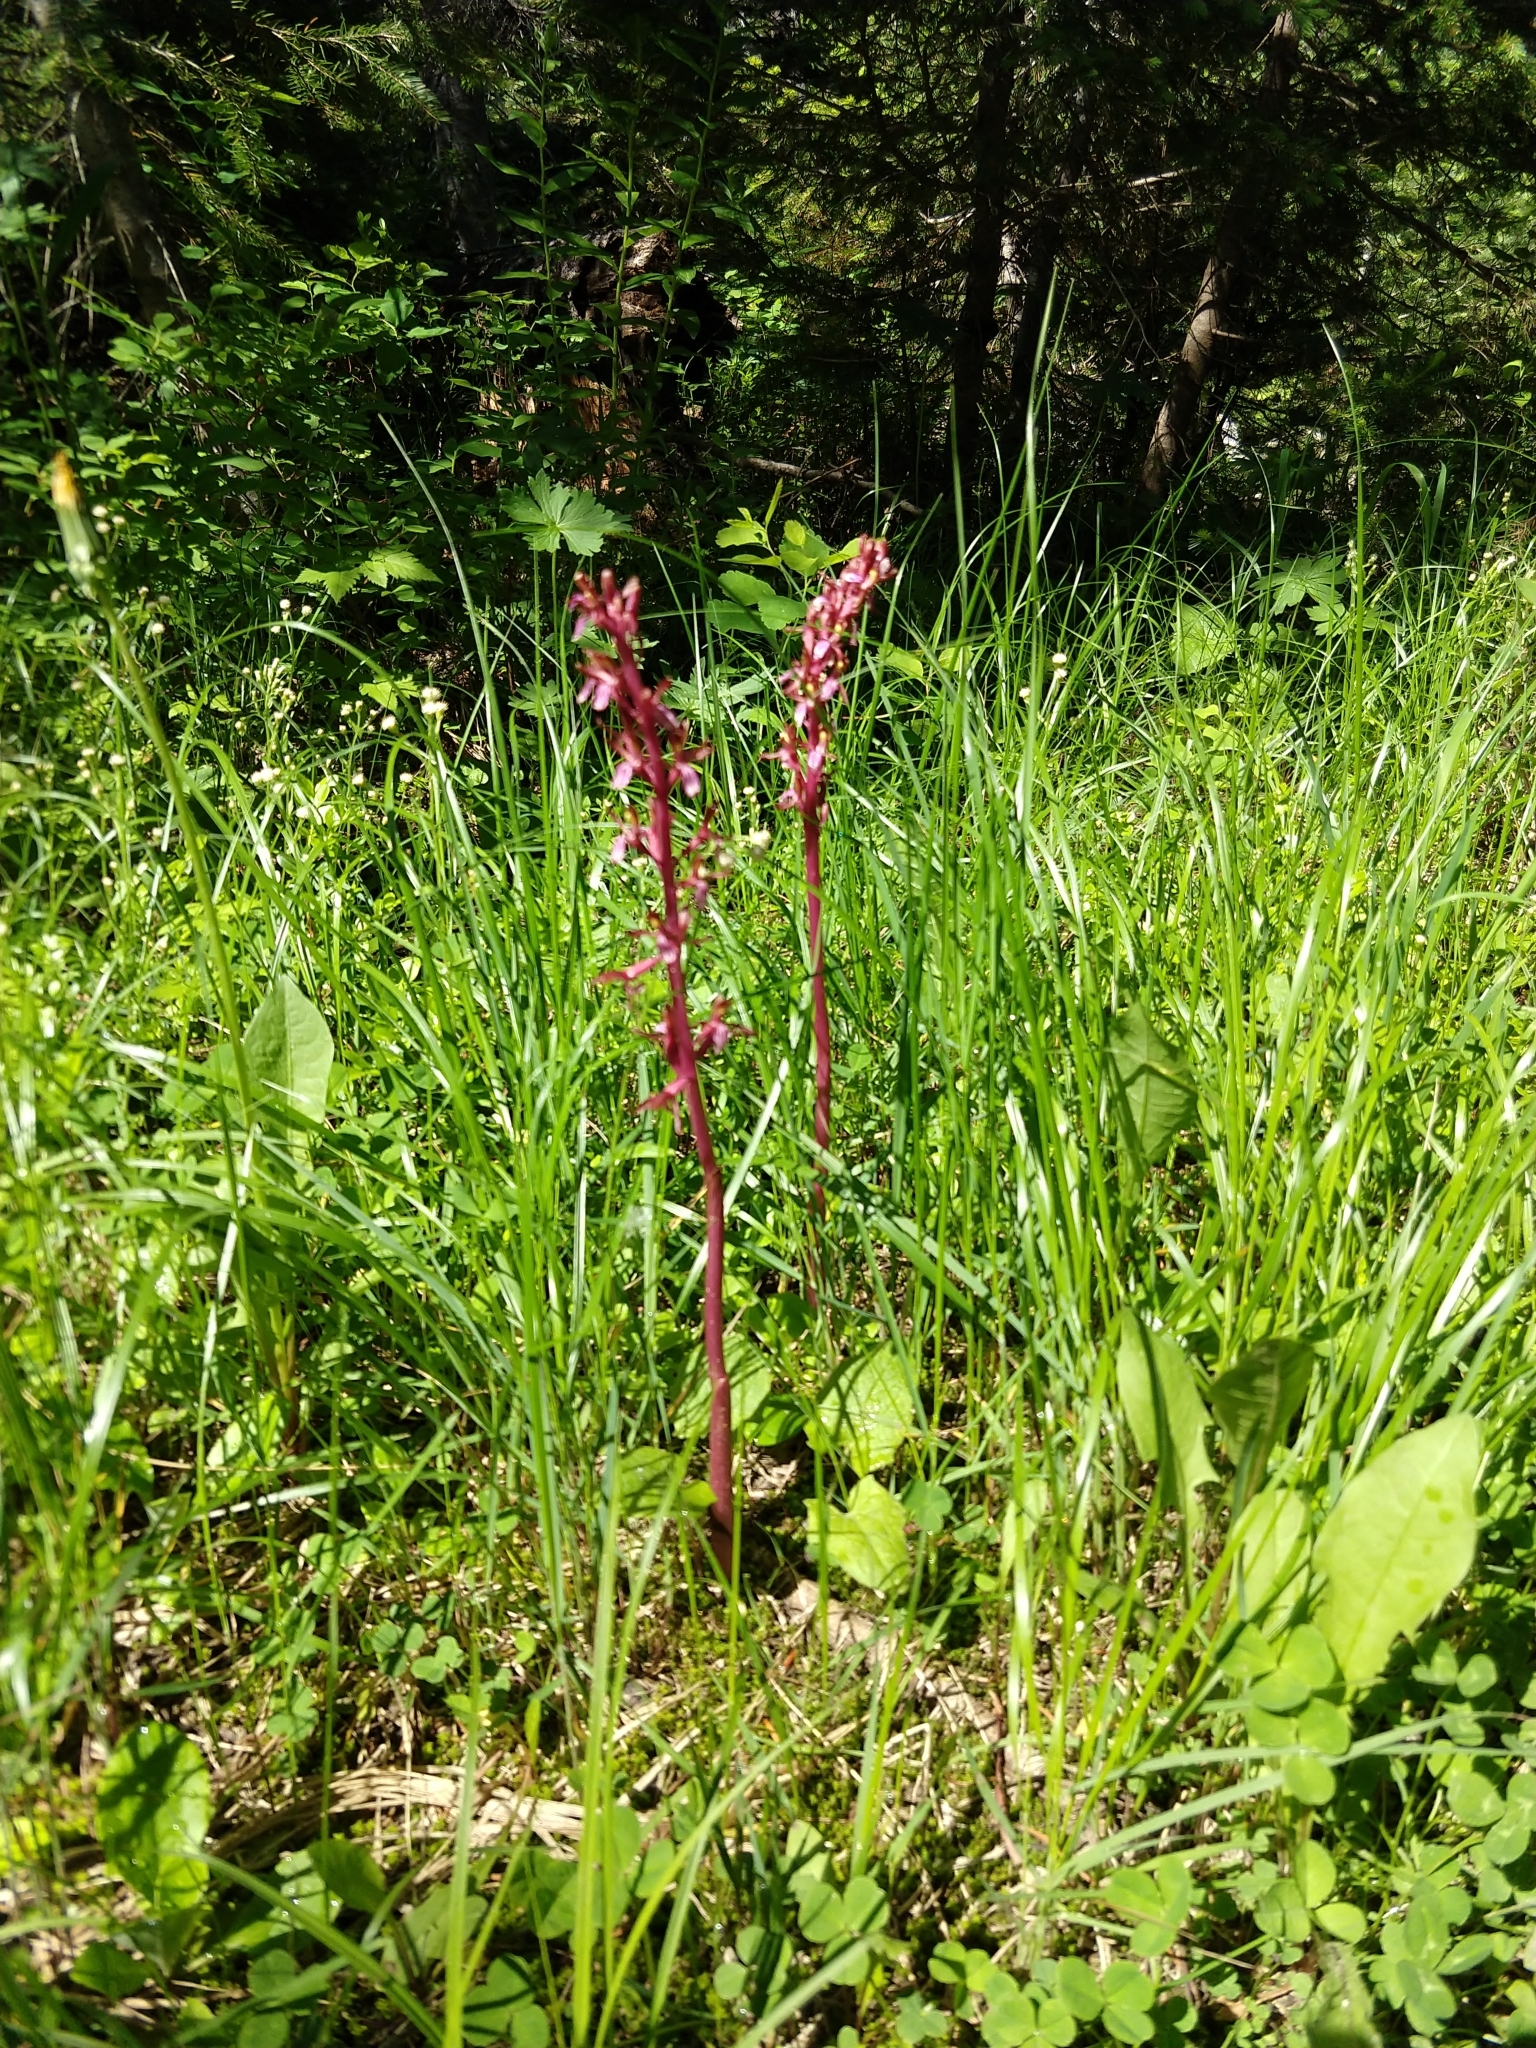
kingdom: Plantae
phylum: Tracheophyta
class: Liliopsida
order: Asparagales
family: Orchidaceae
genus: Corallorhiza
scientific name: Corallorhiza mertensiana
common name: Pacific coralroot
